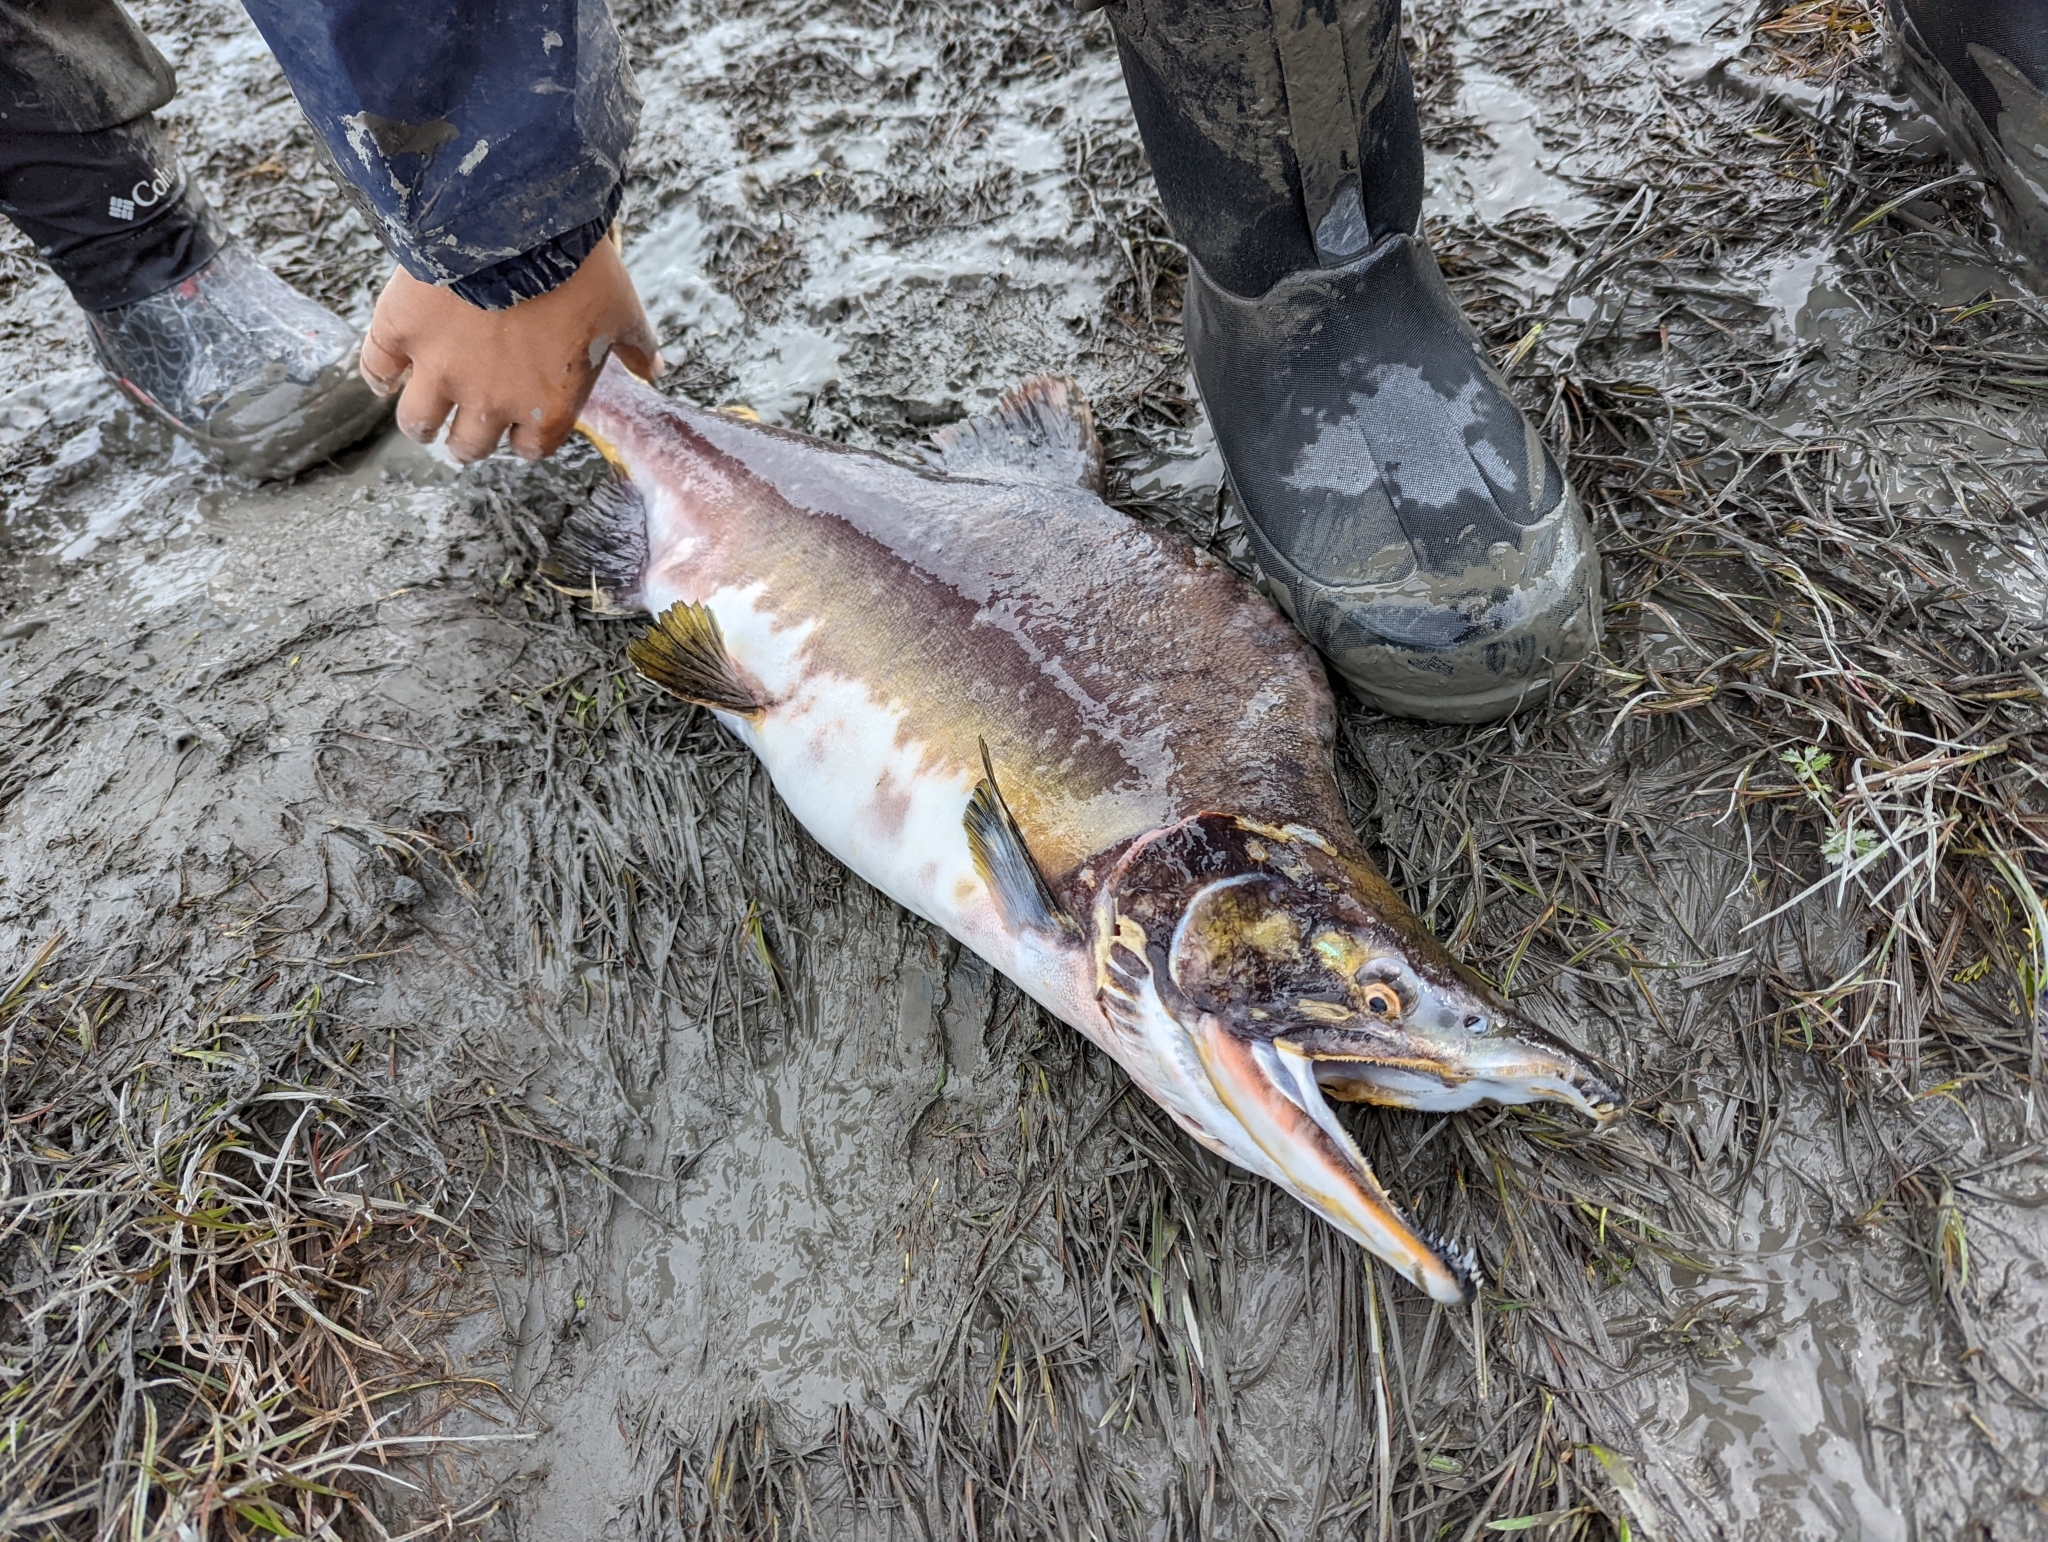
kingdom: Animalia
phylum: Chordata
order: Salmoniformes
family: Salmonidae
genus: Oncorhynchus
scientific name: Oncorhynchus gorbuscha
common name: Humpback salmon
